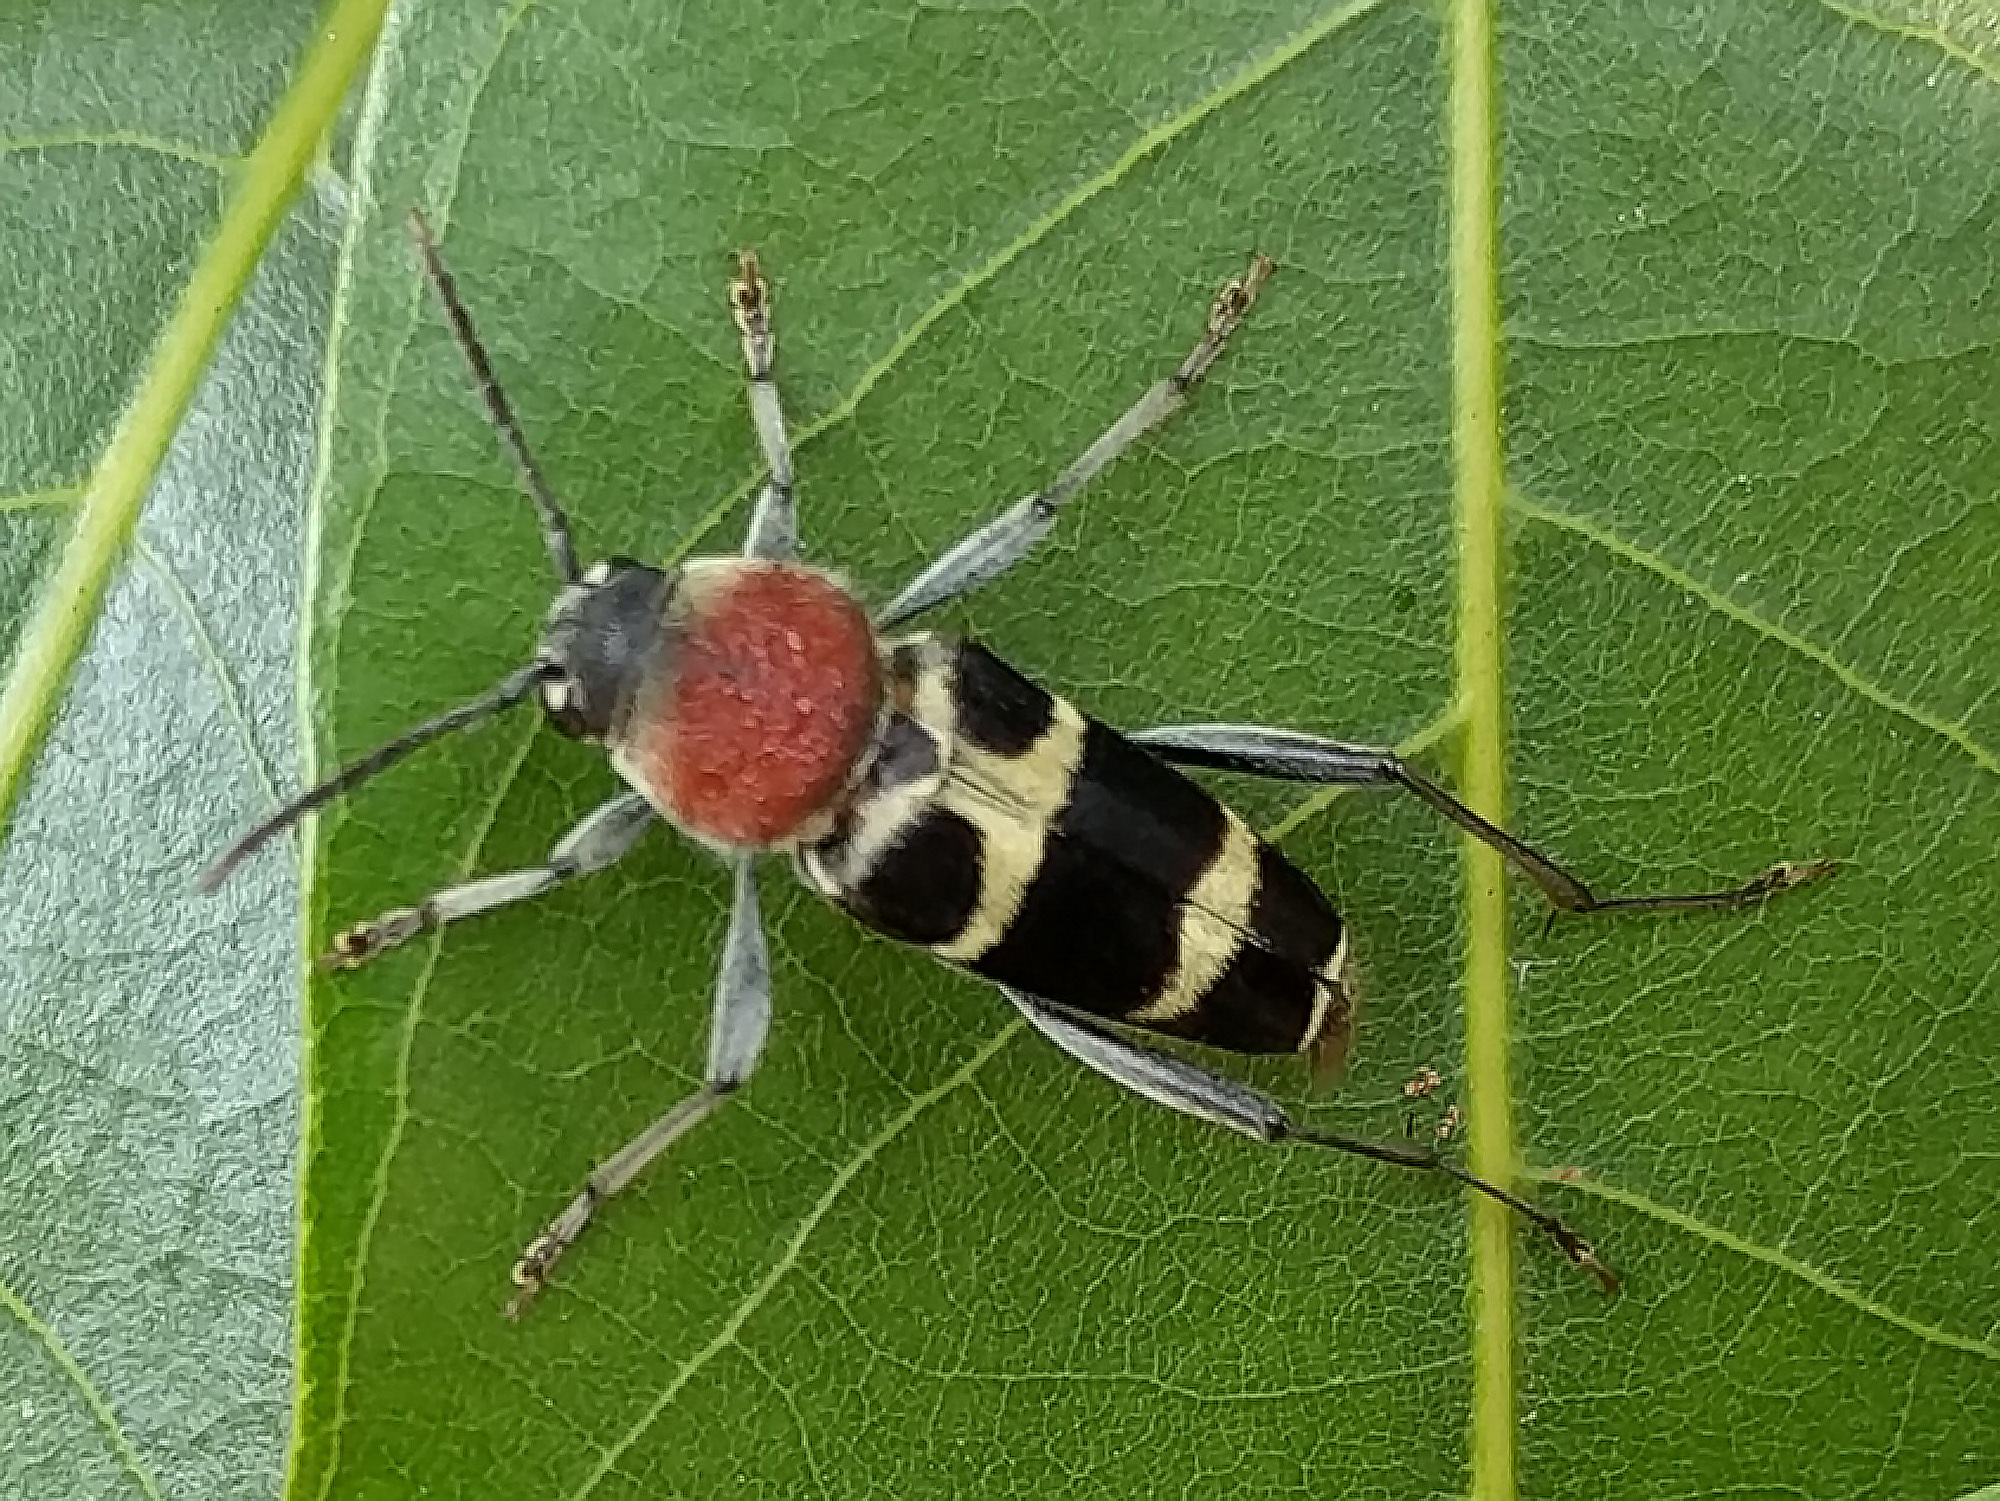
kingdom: Animalia
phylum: Arthropoda
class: Insecta
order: Coleoptera
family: Cerambycidae
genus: Xylotrechus
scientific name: Xylotrechus rufilius
